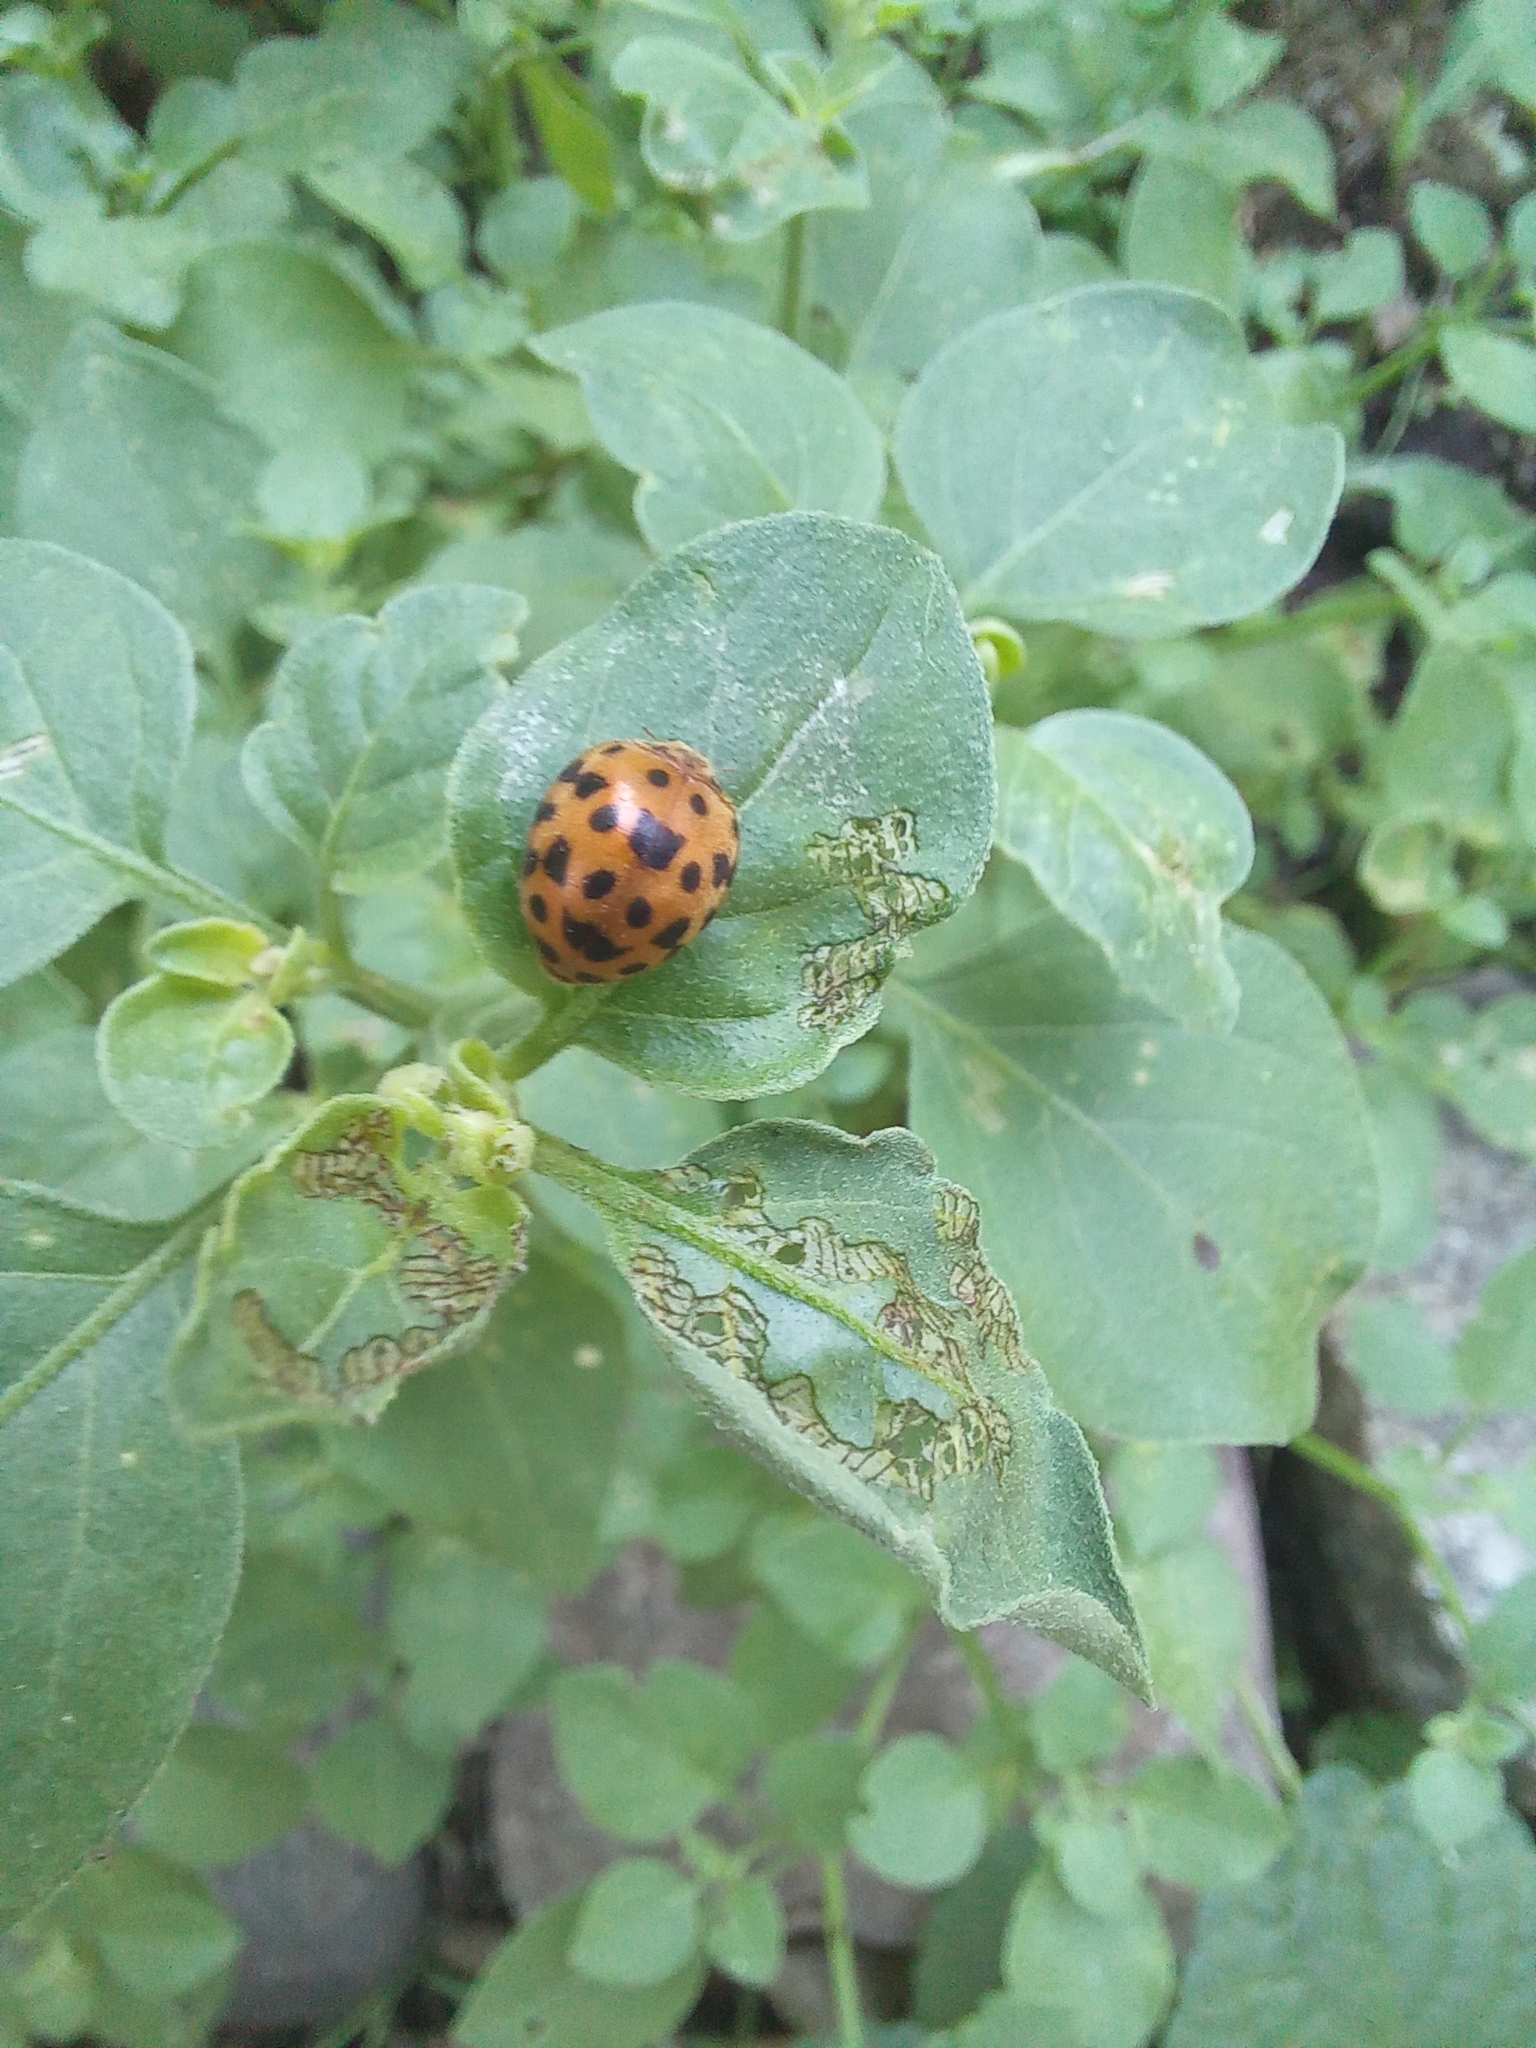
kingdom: Animalia
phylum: Arthropoda
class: Insecta
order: Coleoptera
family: Coccinellidae
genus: Henosepilachna
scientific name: Henosepilachna vigintioctopunctata
